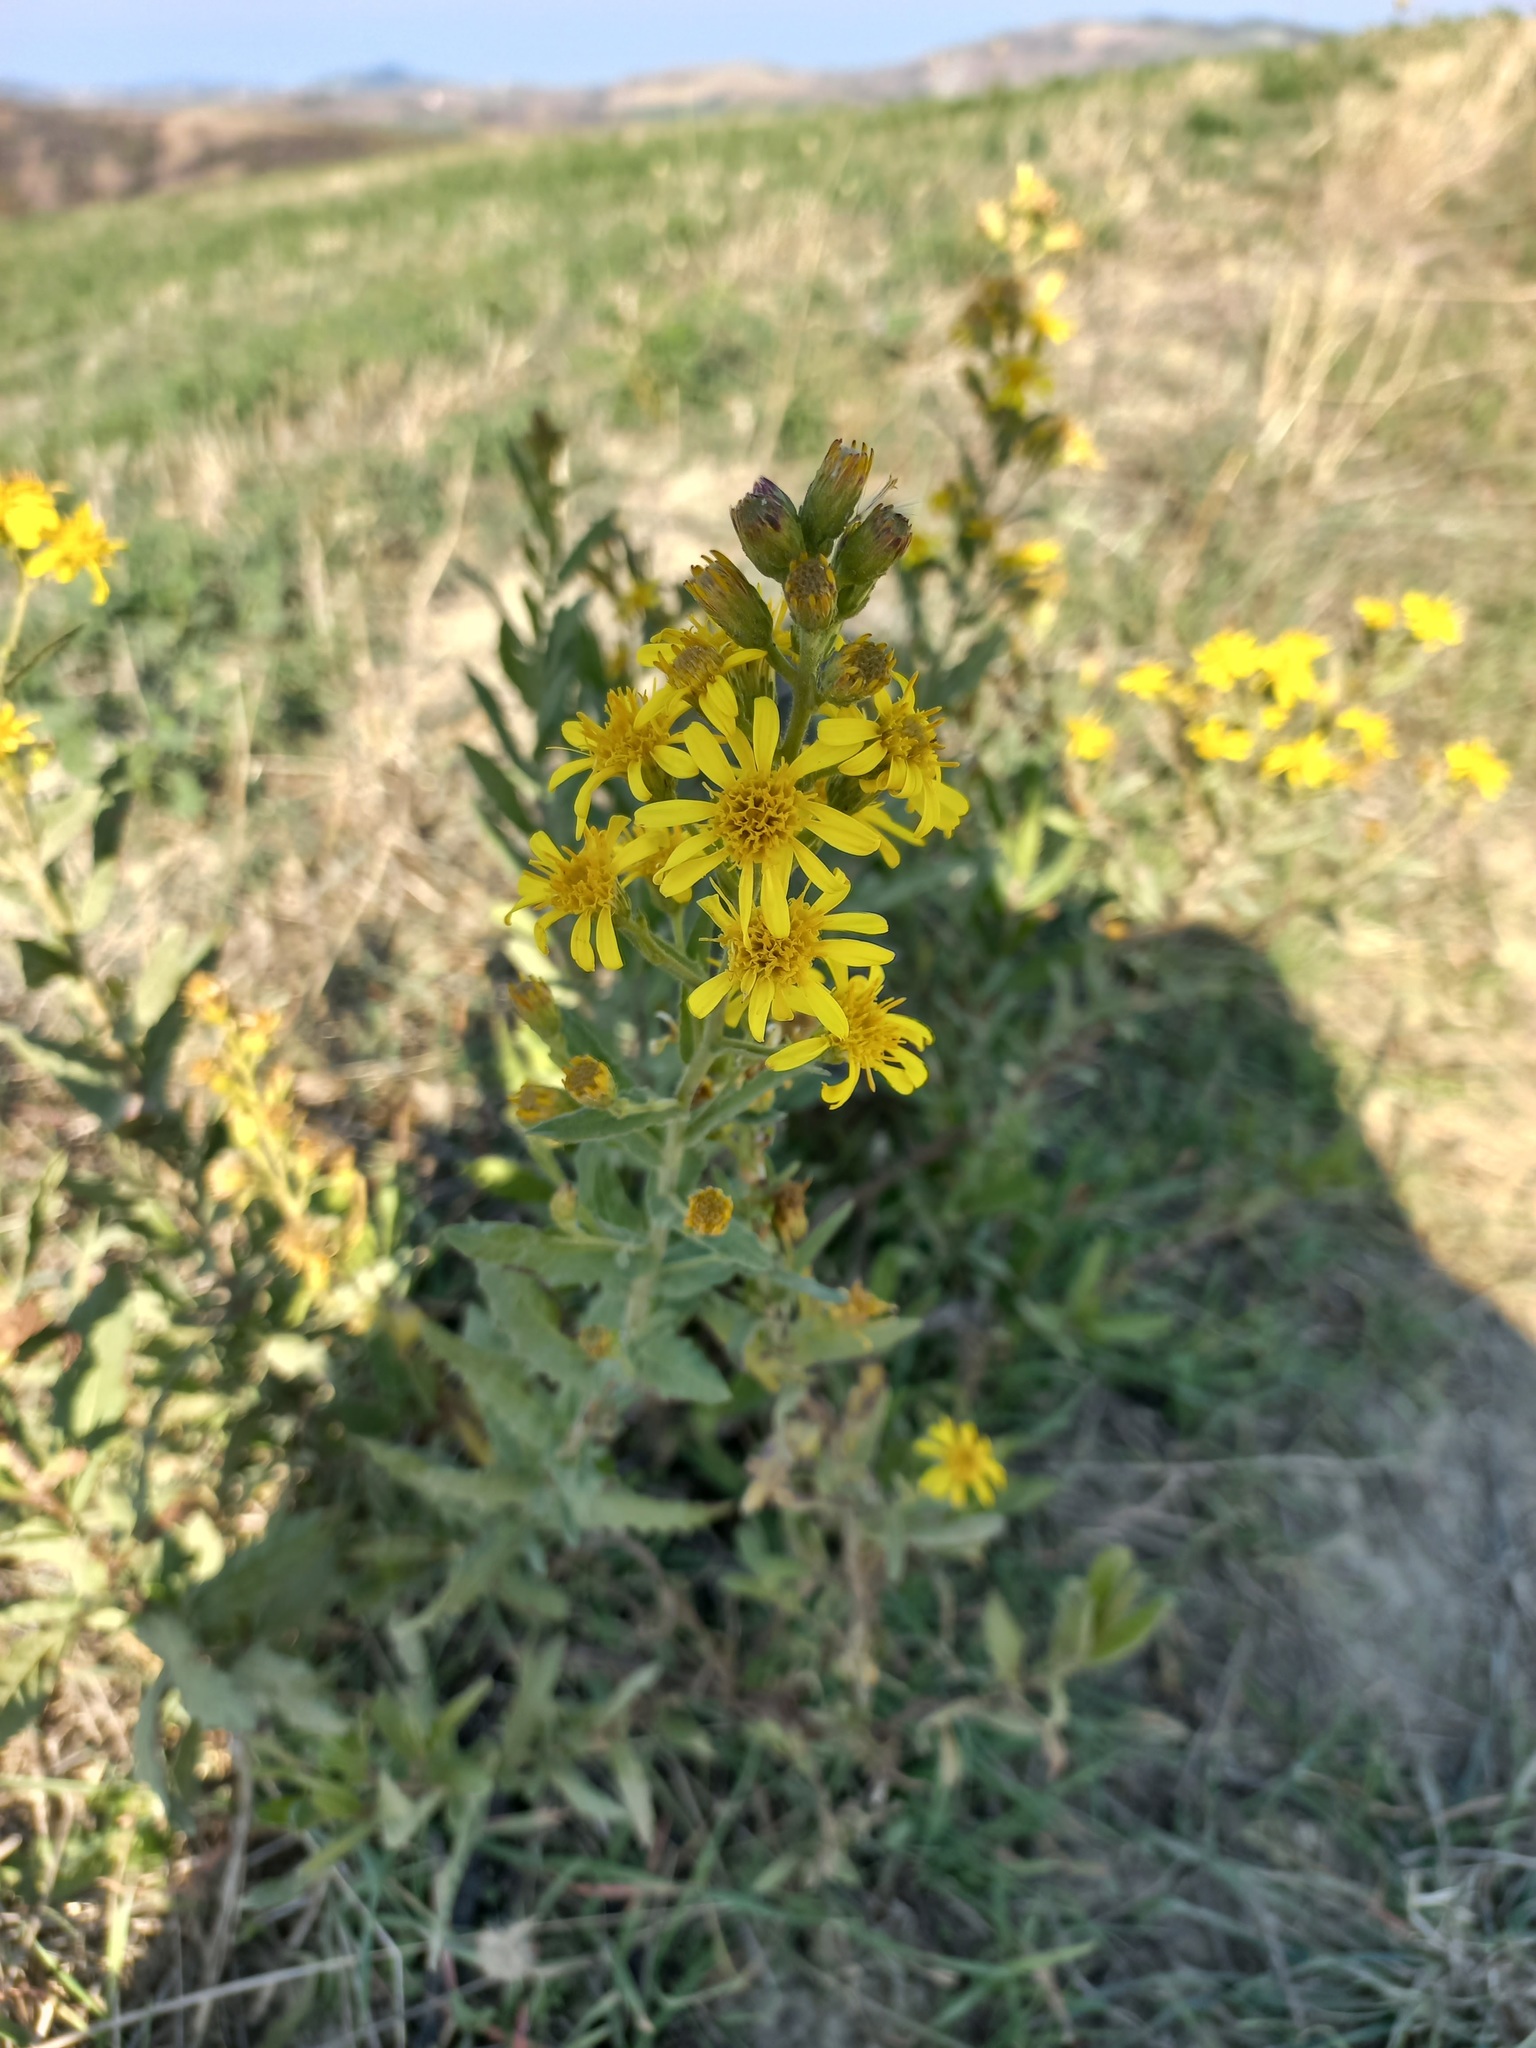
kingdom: Plantae
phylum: Tracheophyta
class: Magnoliopsida
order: Asterales
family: Asteraceae
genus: Dittrichia
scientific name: Dittrichia viscosa
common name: Woody fleabane
